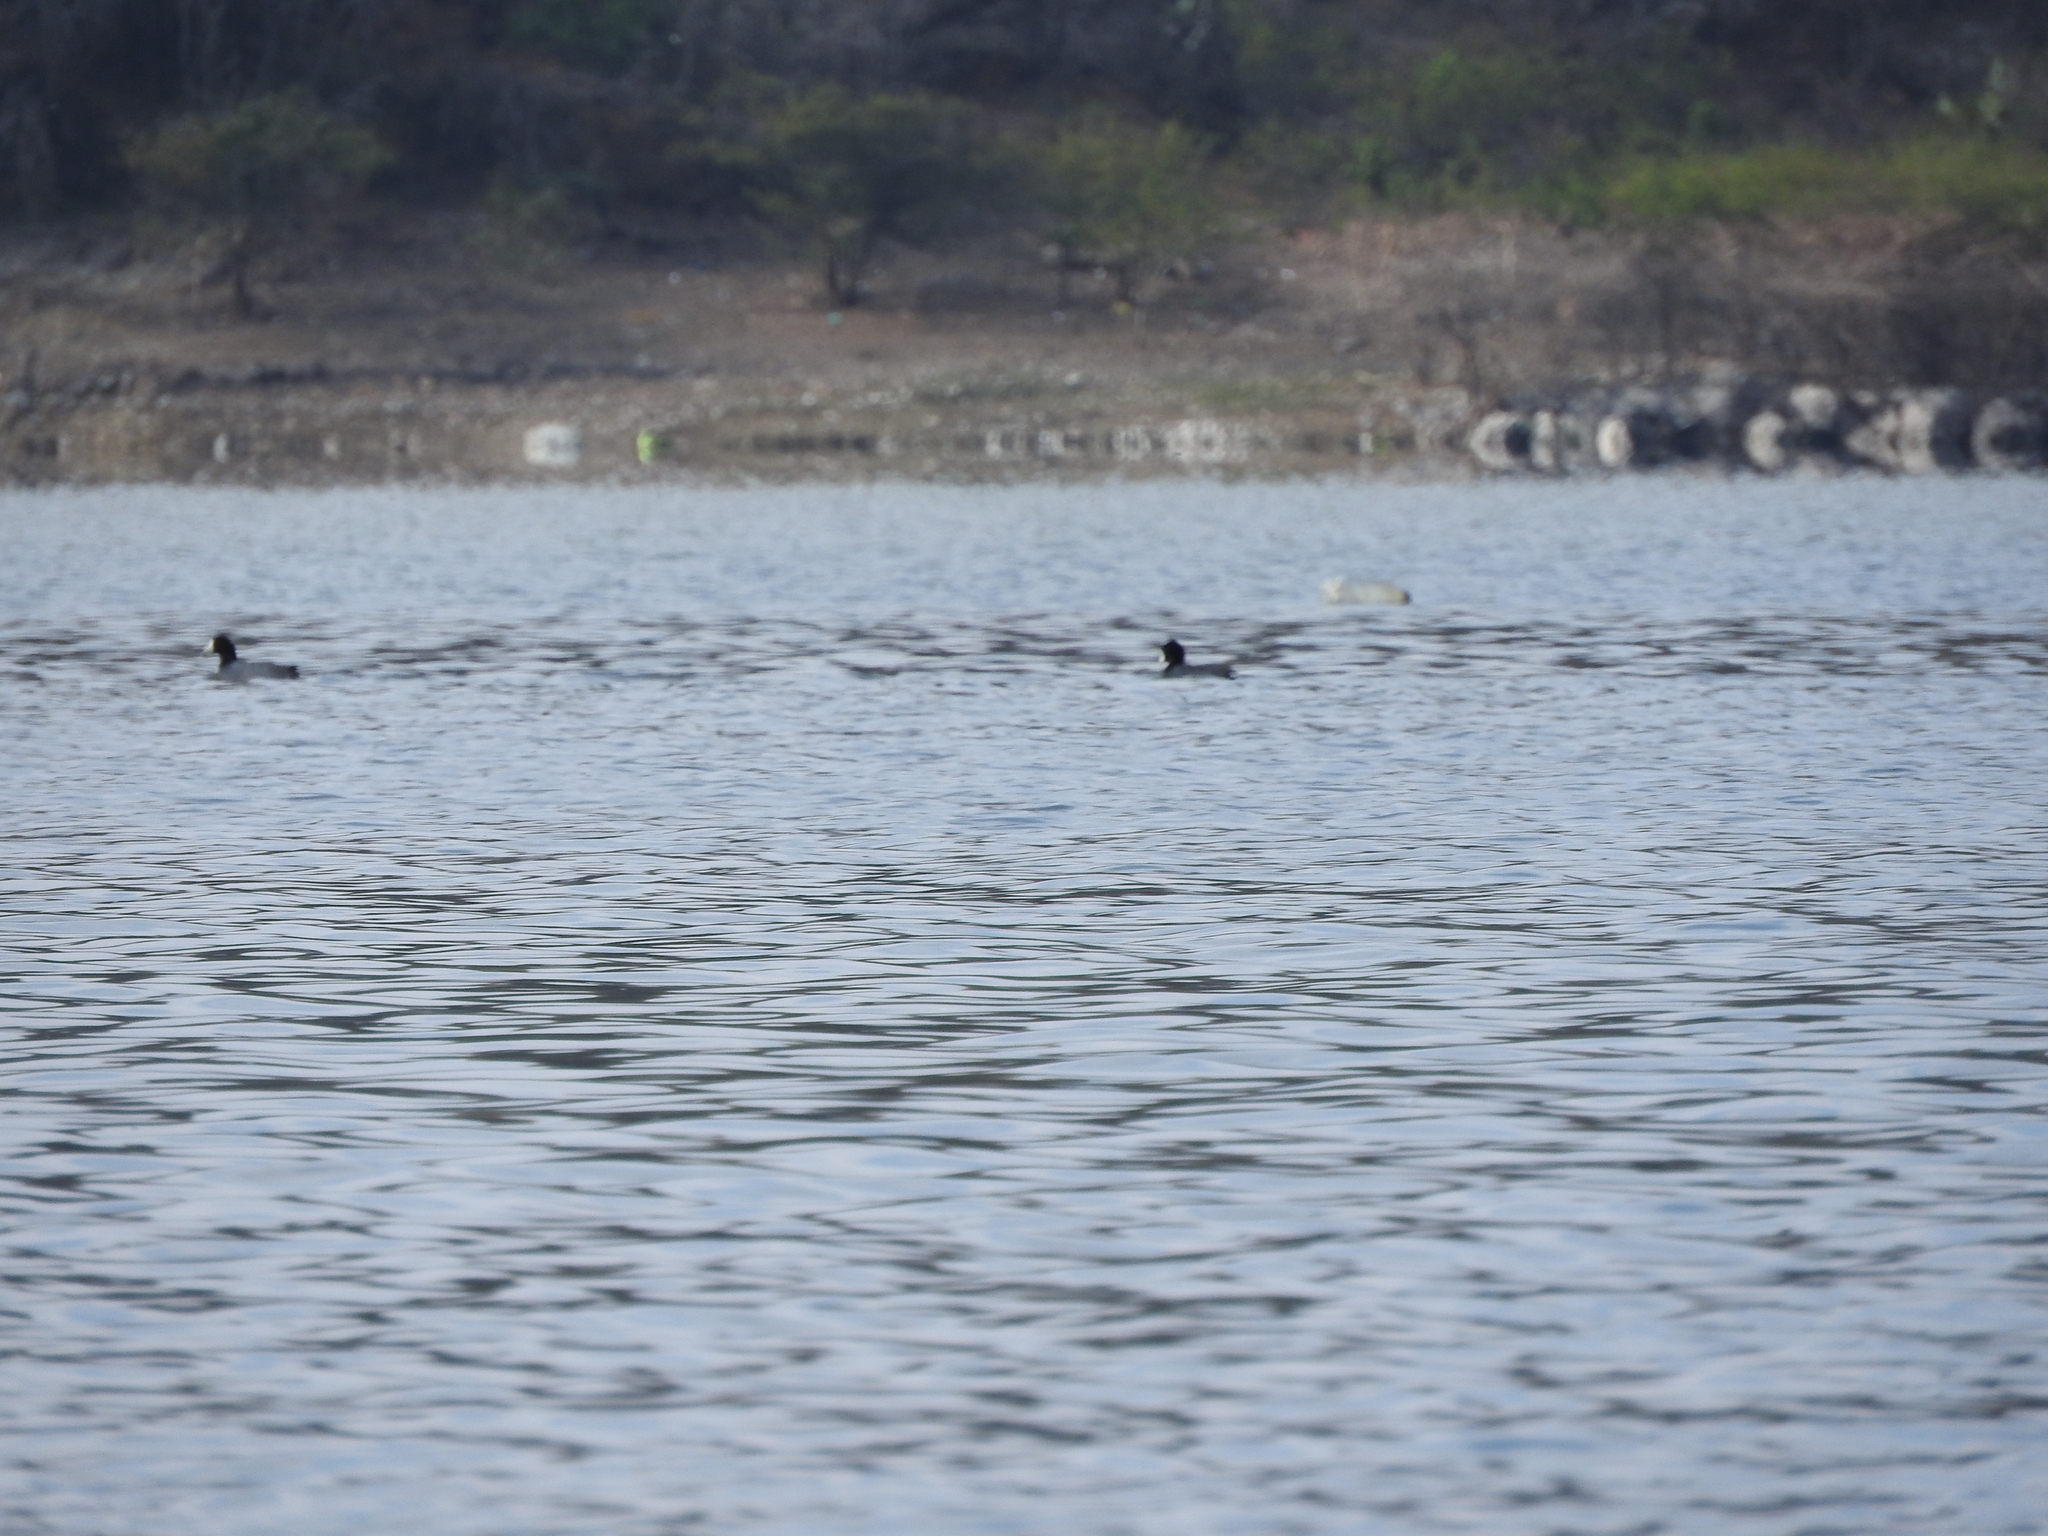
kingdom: Animalia
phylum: Chordata
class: Aves
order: Gruiformes
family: Rallidae
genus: Fulica
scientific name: Fulica americana
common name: American coot
